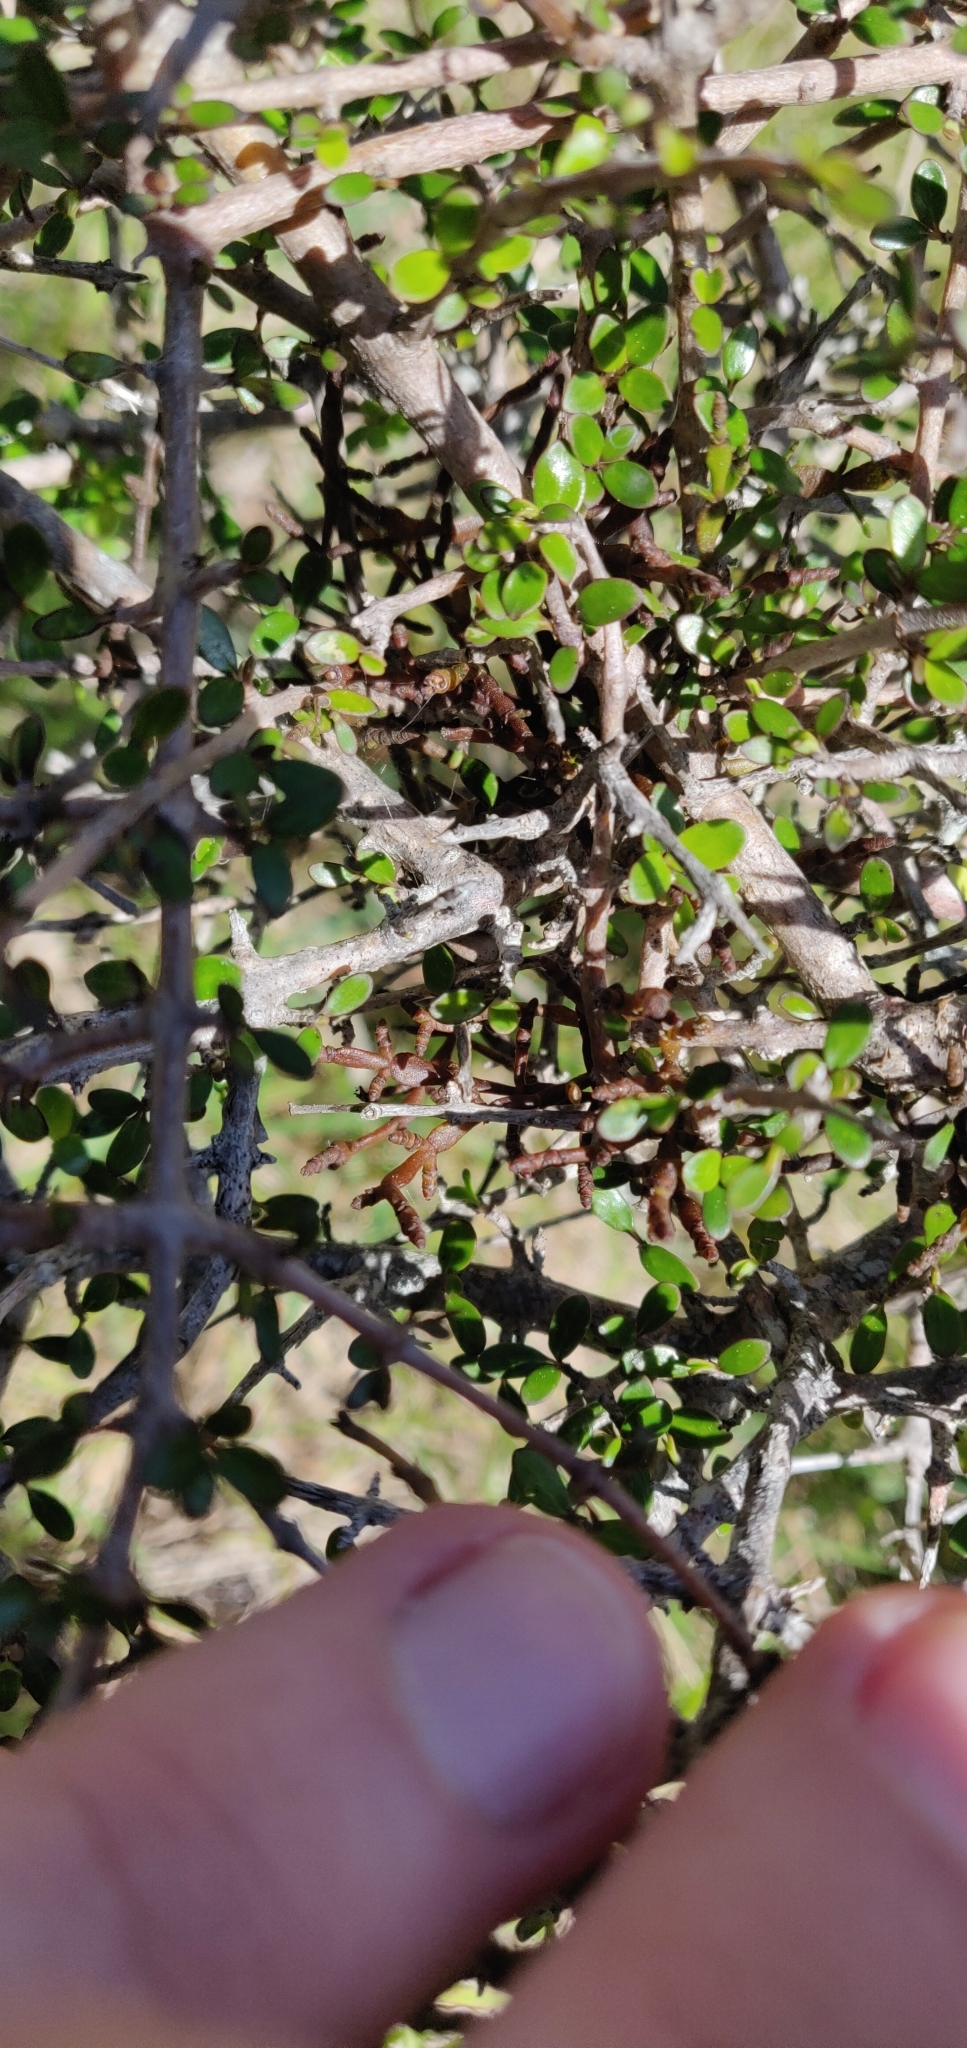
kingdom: Plantae
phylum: Tracheophyta
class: Magnoliopsida
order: Santalales
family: Viscaceae
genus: Korthalsella
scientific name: Korthalsella clavata
